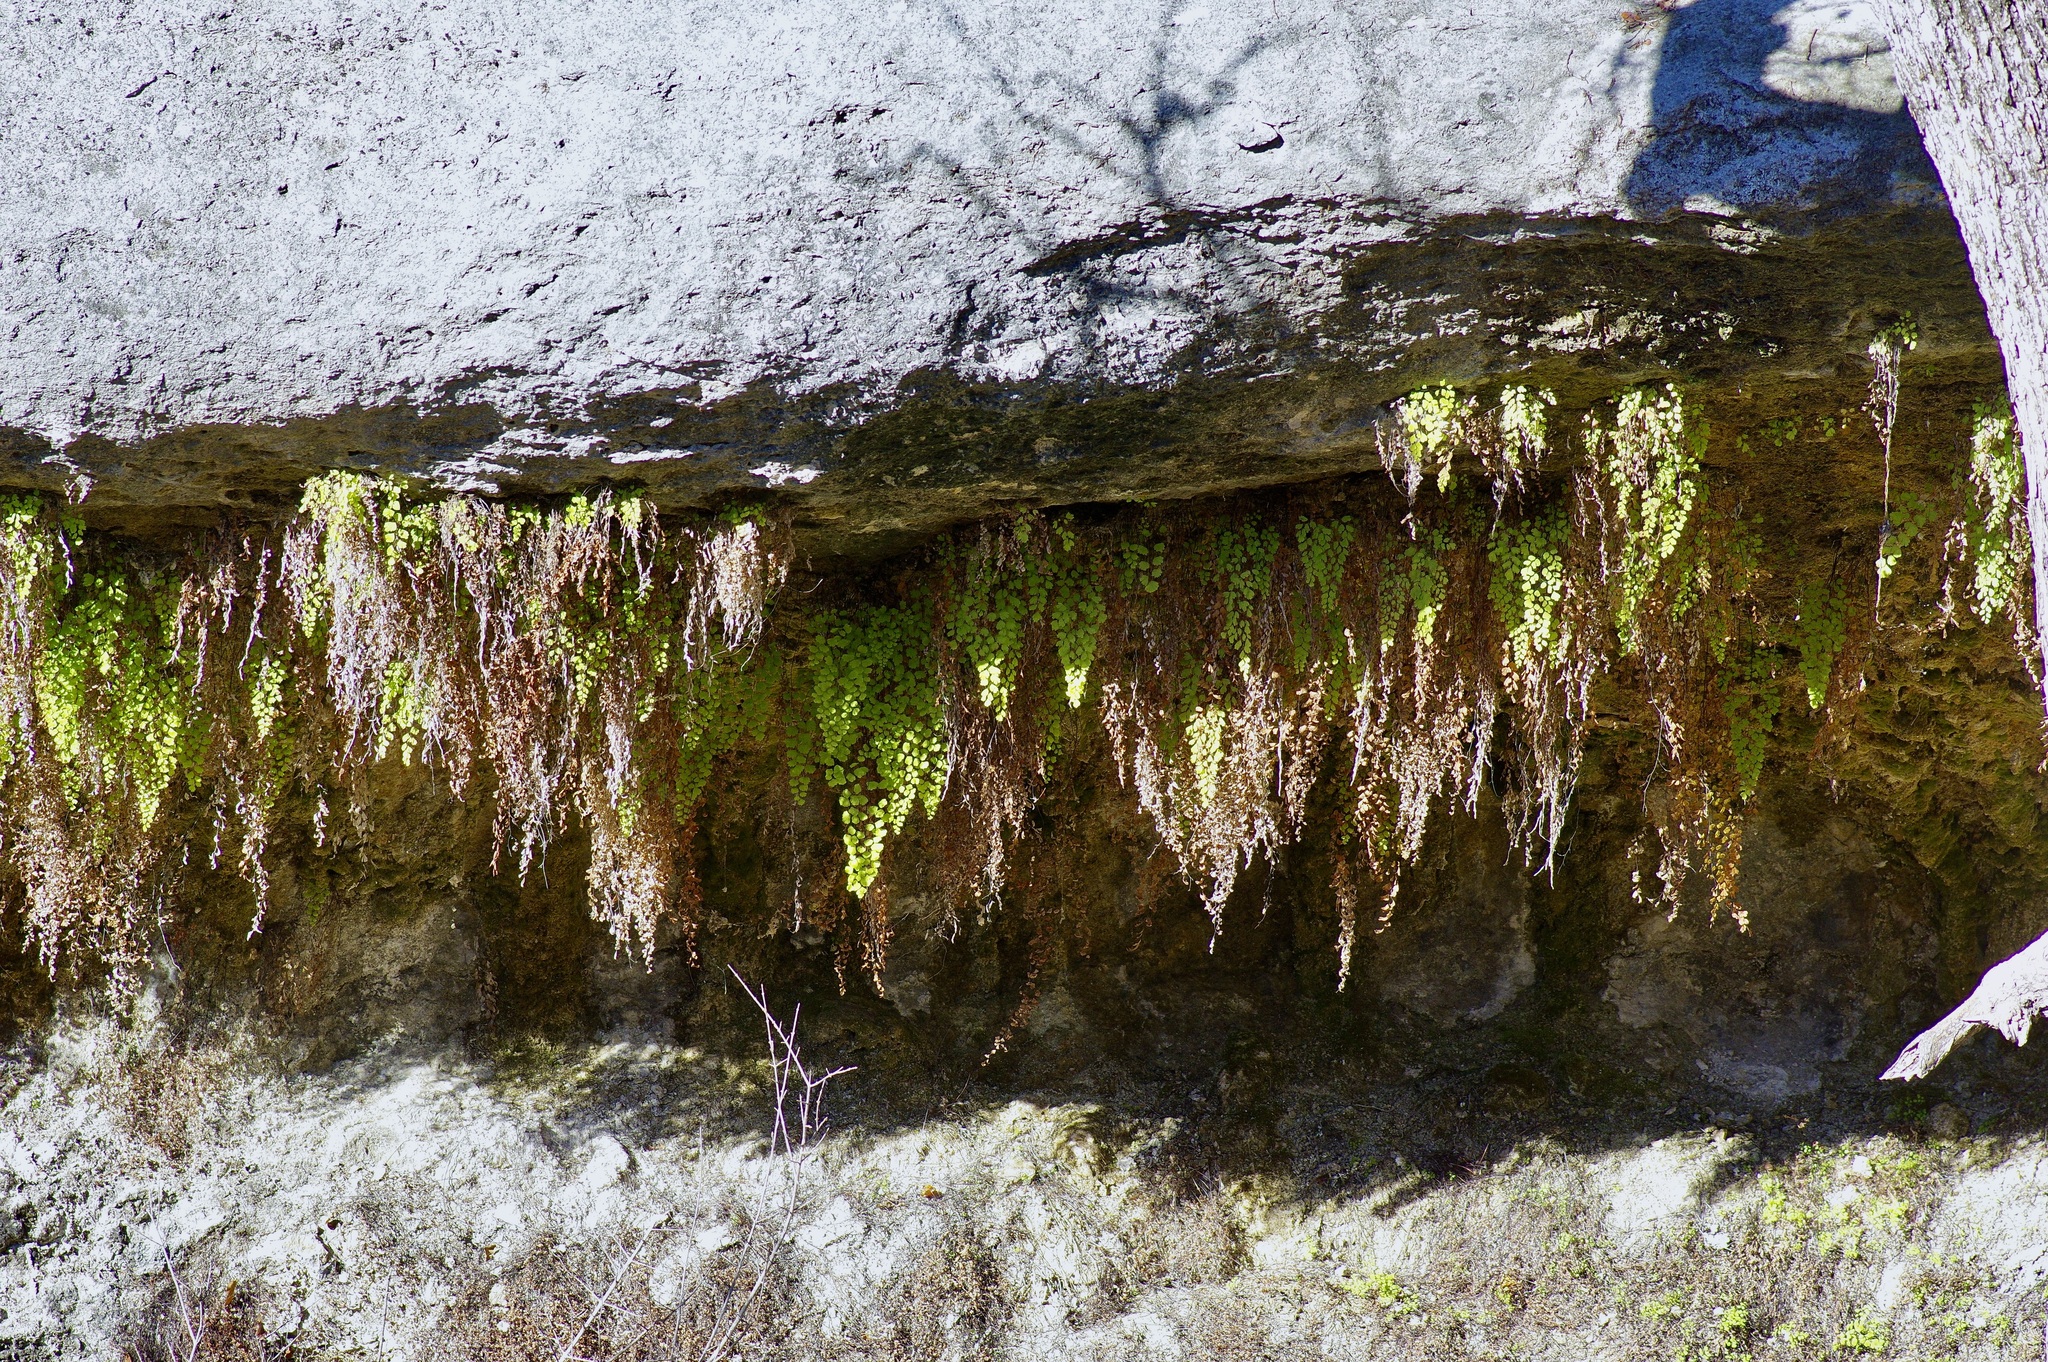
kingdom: Plantae
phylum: Tracheophyta
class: Polypodiopsida
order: Polypodiales
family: Pteridaceae
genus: Adiantum
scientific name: Adiantum capillus-veneris
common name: Maidenhair fern
